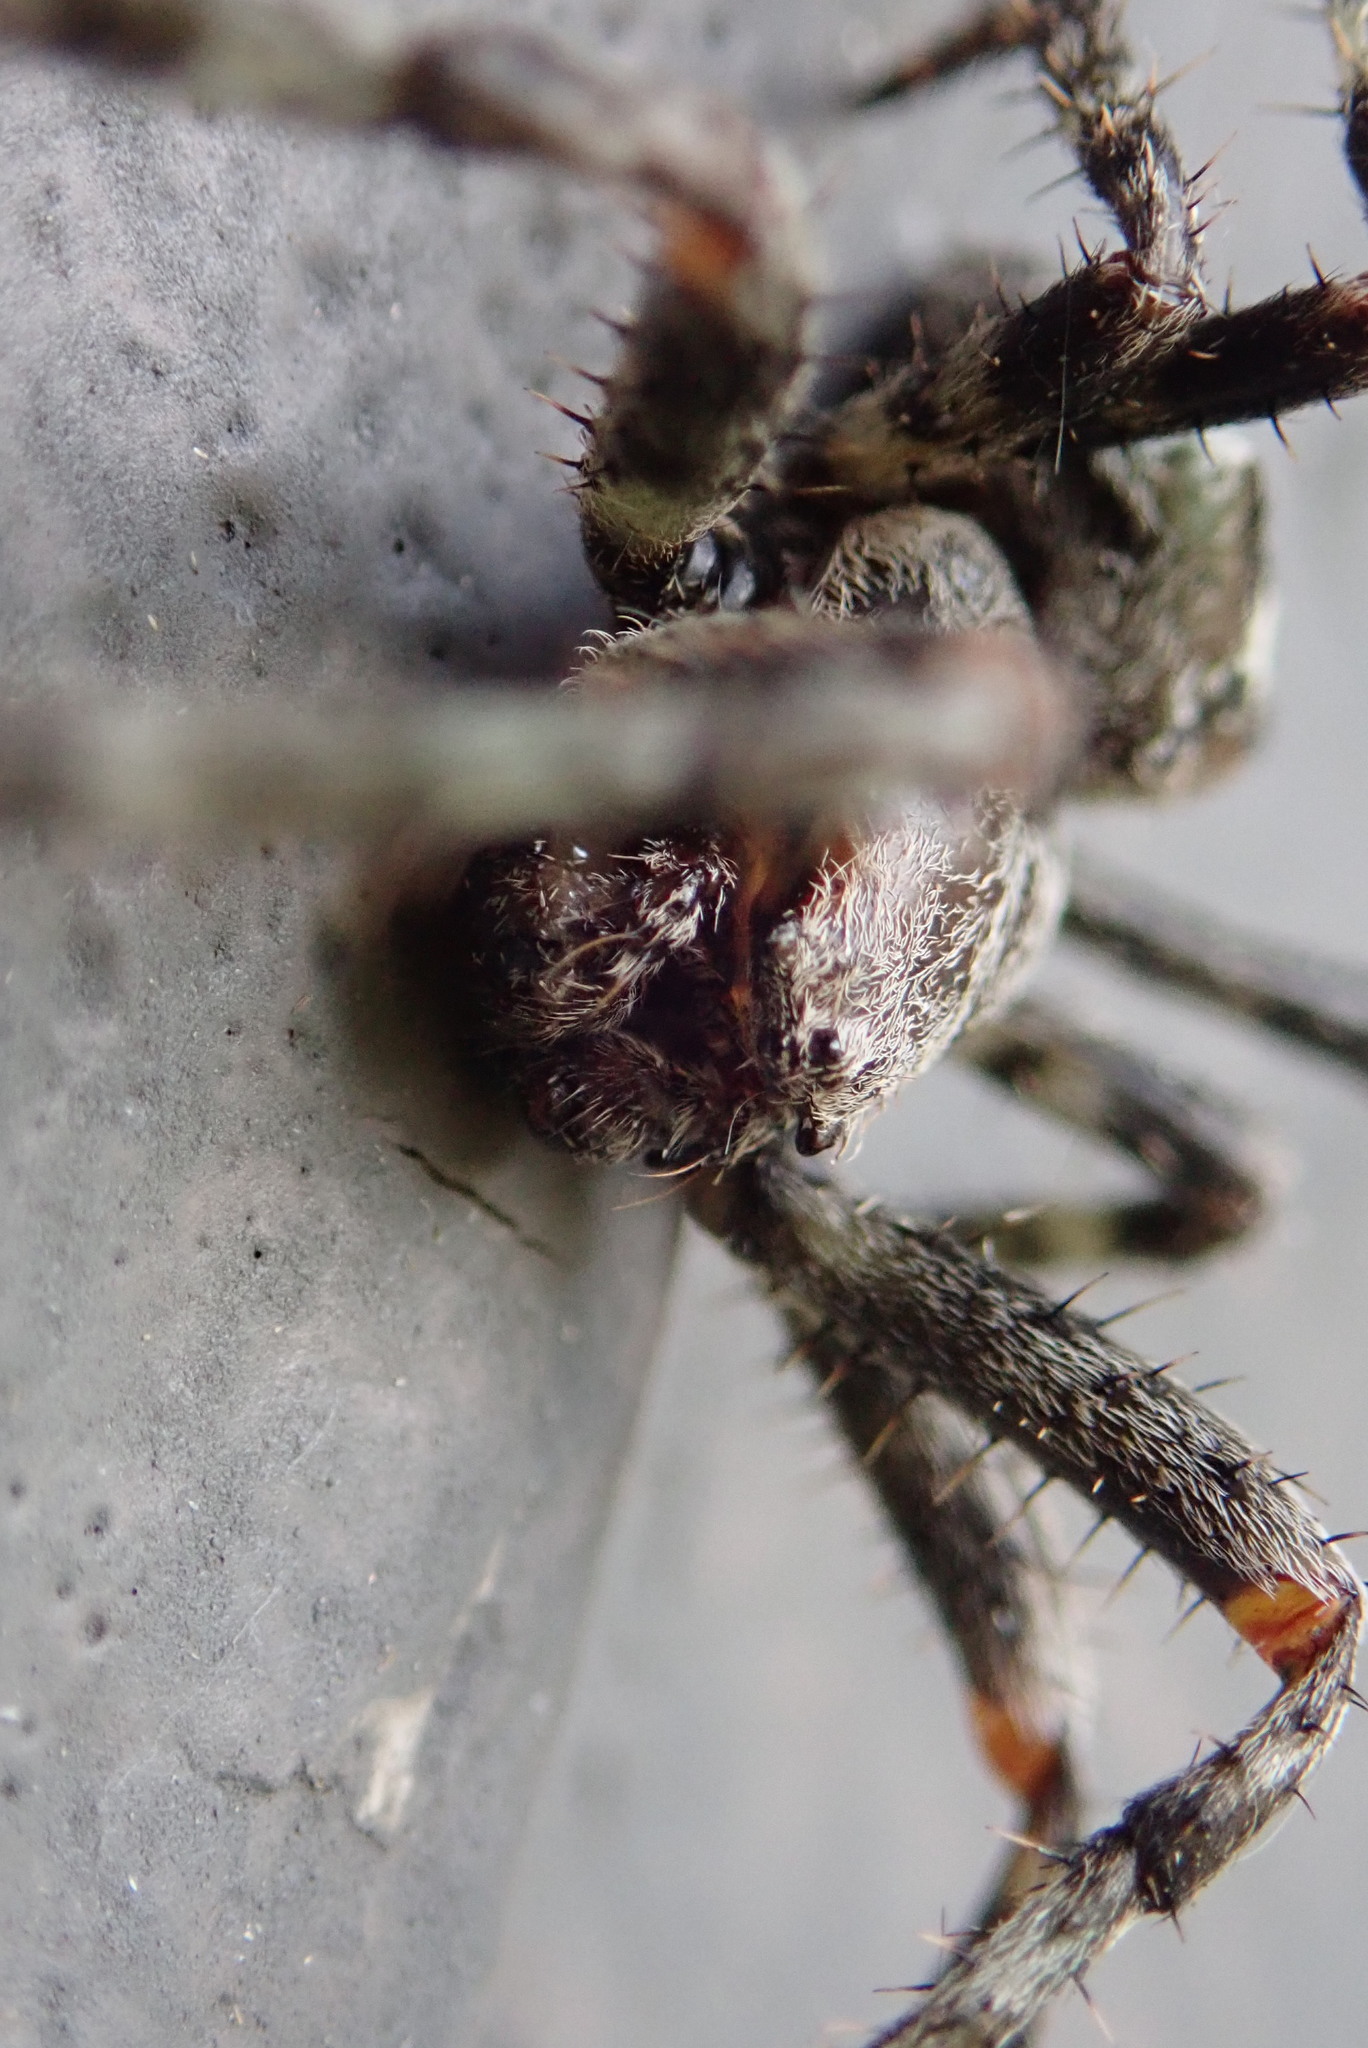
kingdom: Animalia
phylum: Arthropoda
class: Arachnida
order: Araneae
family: Araneidae
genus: Araneus
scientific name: Araneus bicentenarius
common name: Giant lichen orbweaver
